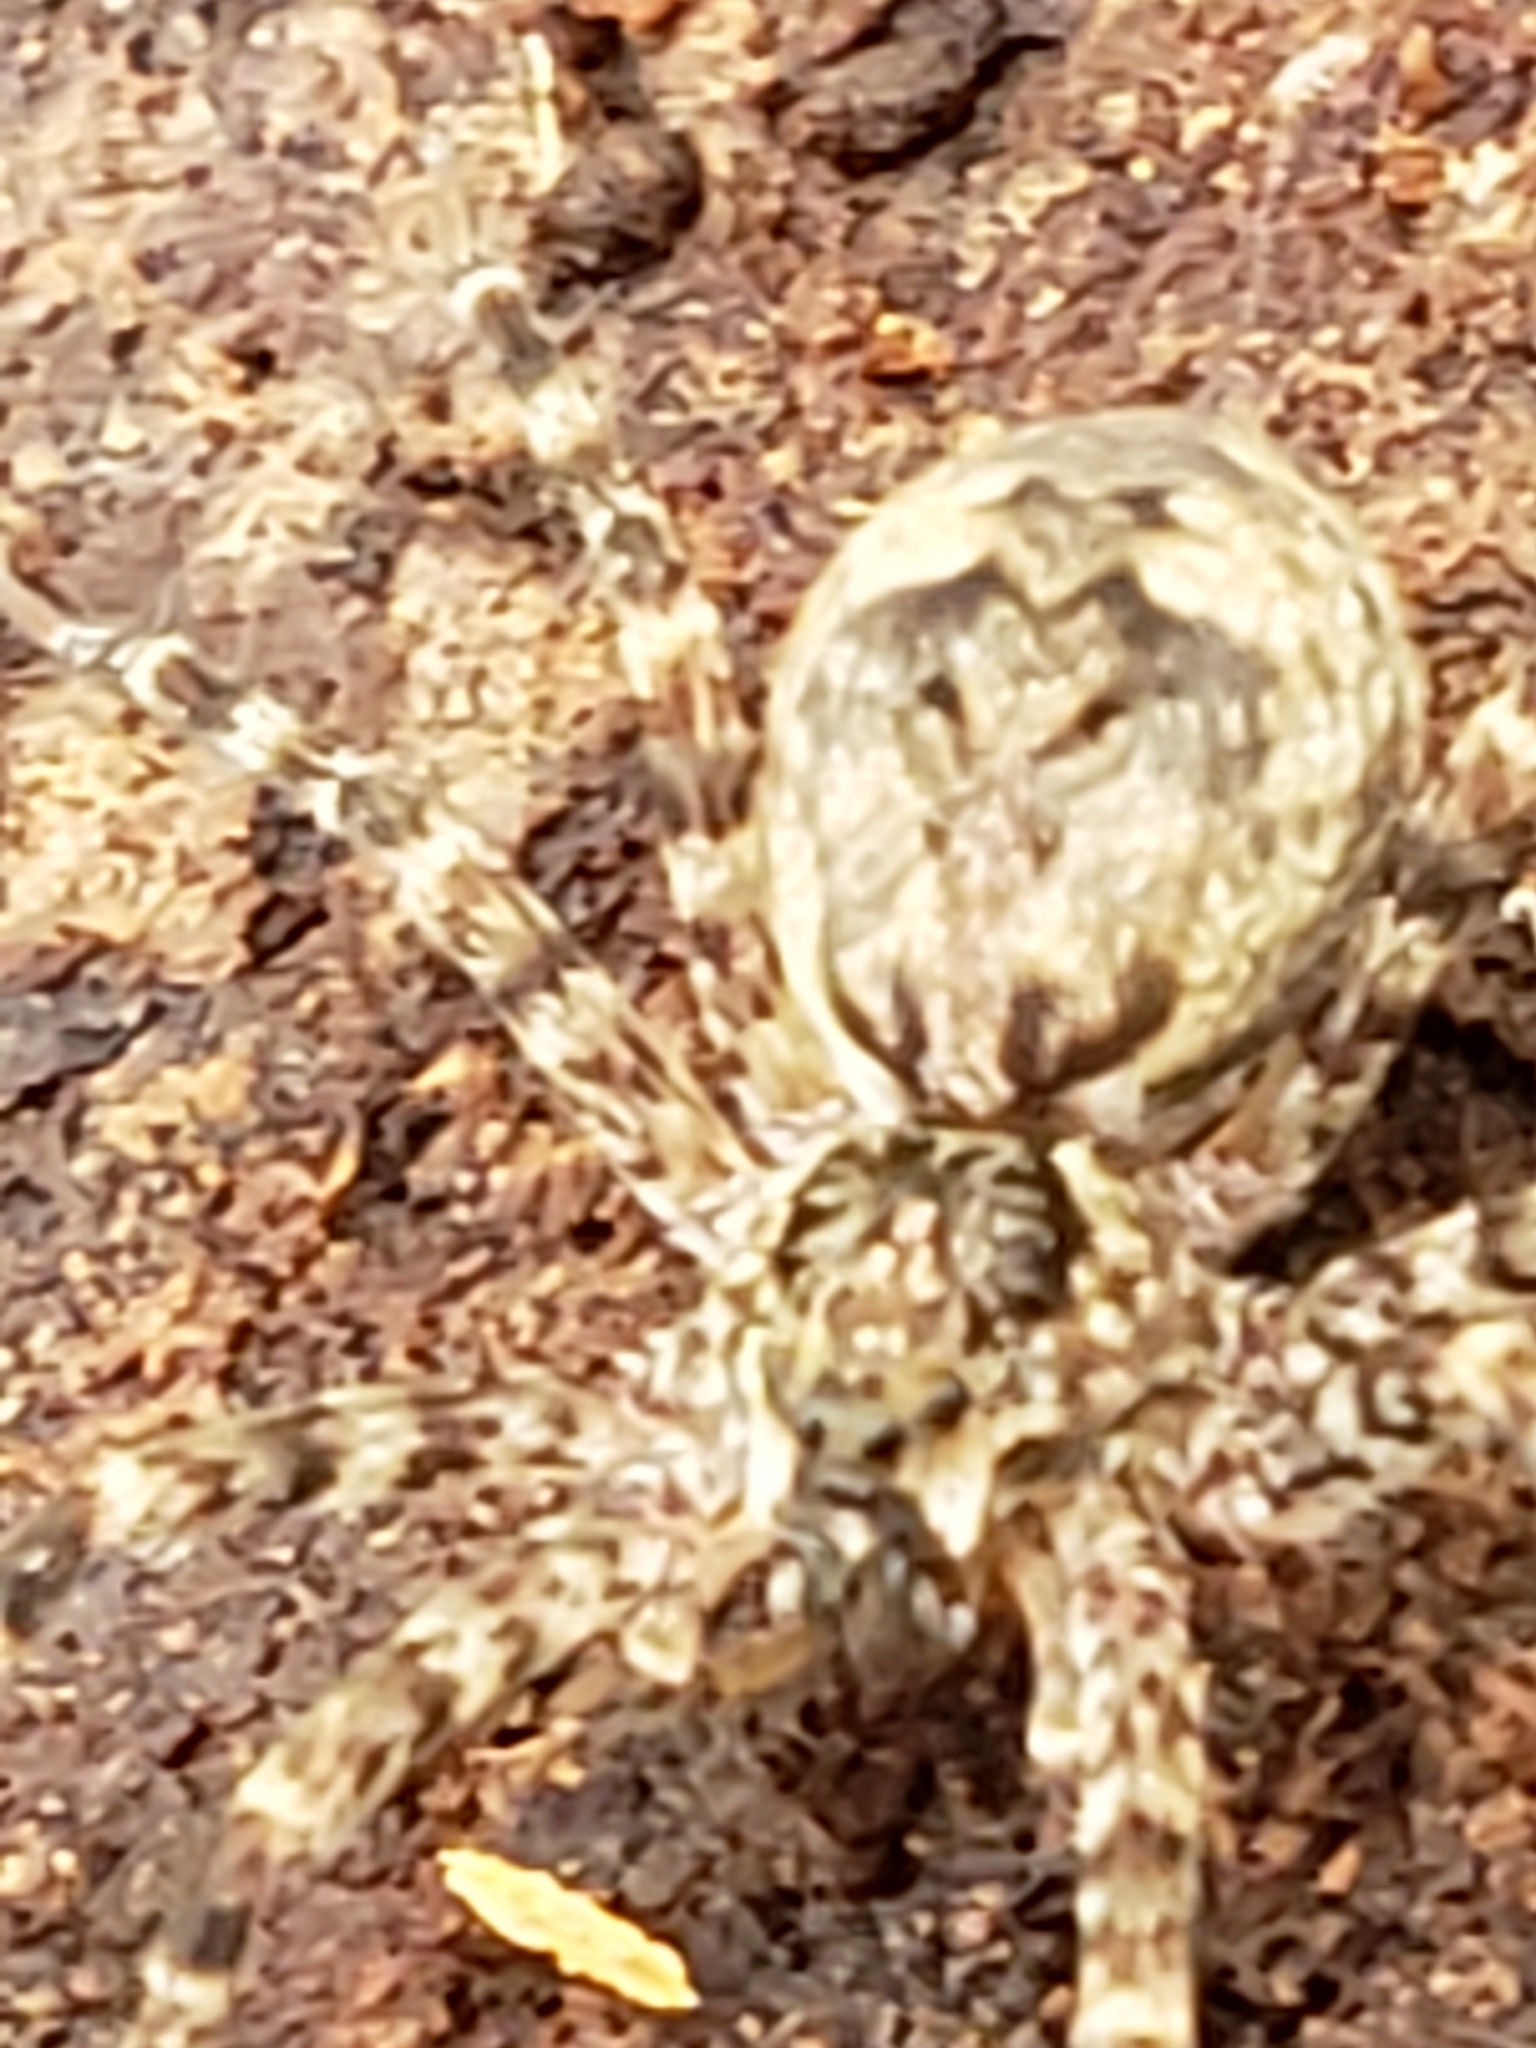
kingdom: Animalia
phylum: Arthropoda
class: Arachnida
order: Araneae
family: Pisauridae
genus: Dolomedes
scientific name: Dolomedes tenebrosus
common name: Dark fishing spider
